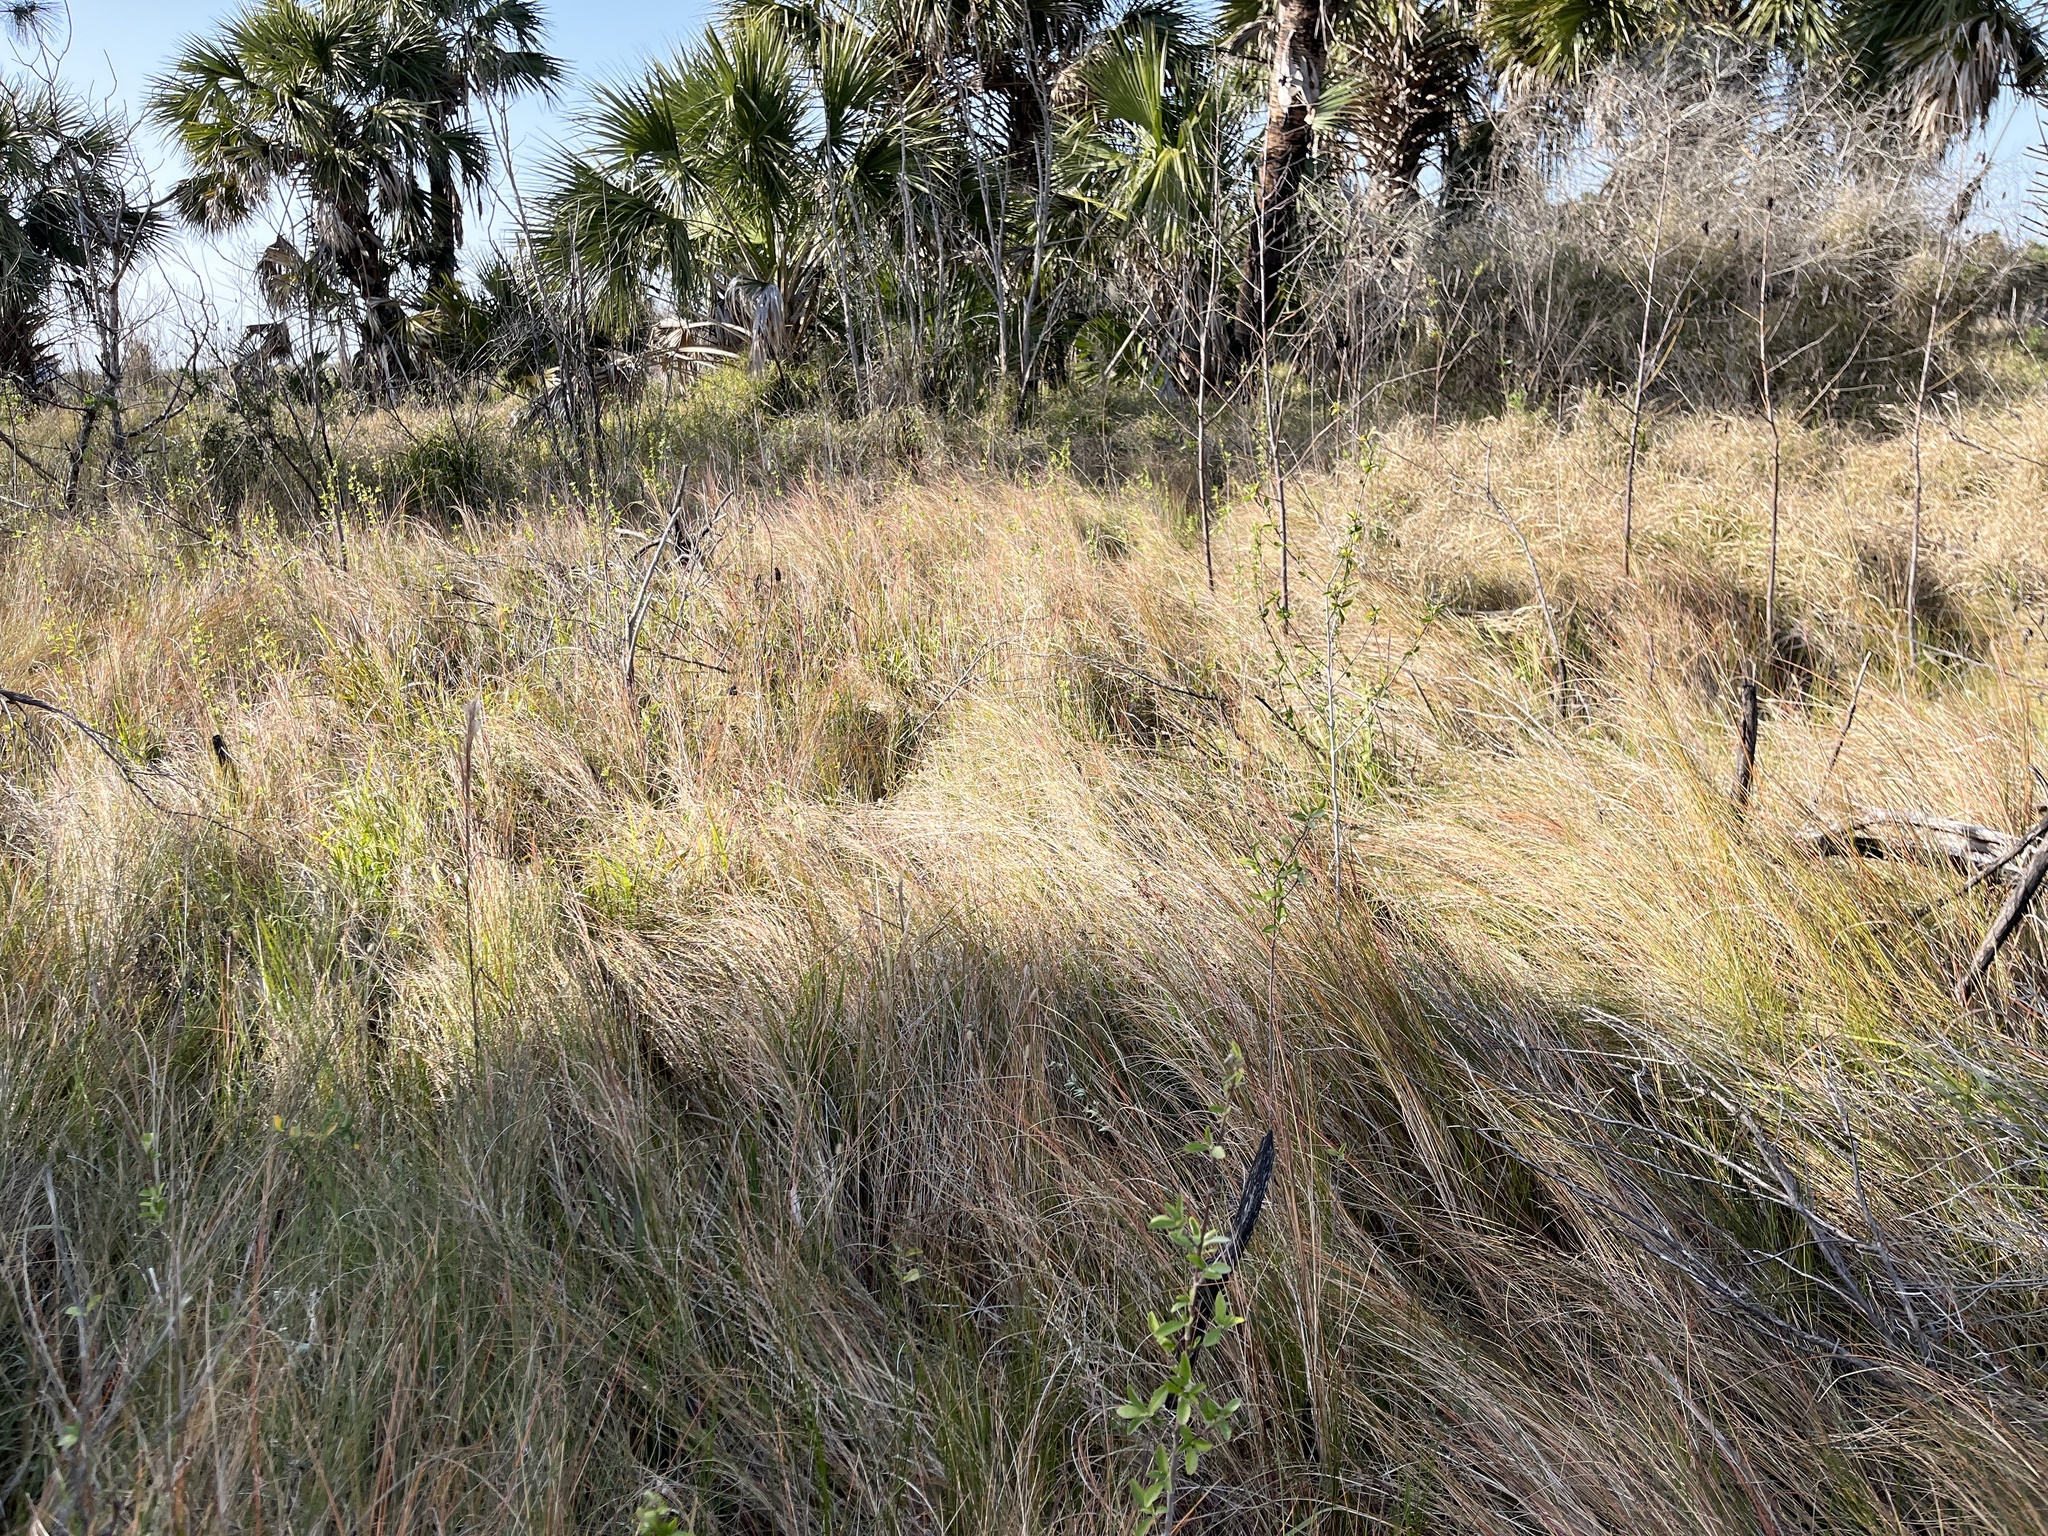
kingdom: Plantae
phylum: Tracheophyta
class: Liliopsida
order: Poales
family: Poaceae
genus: Sporobolus
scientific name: Sporobolus pumilus
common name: Highwater grass
